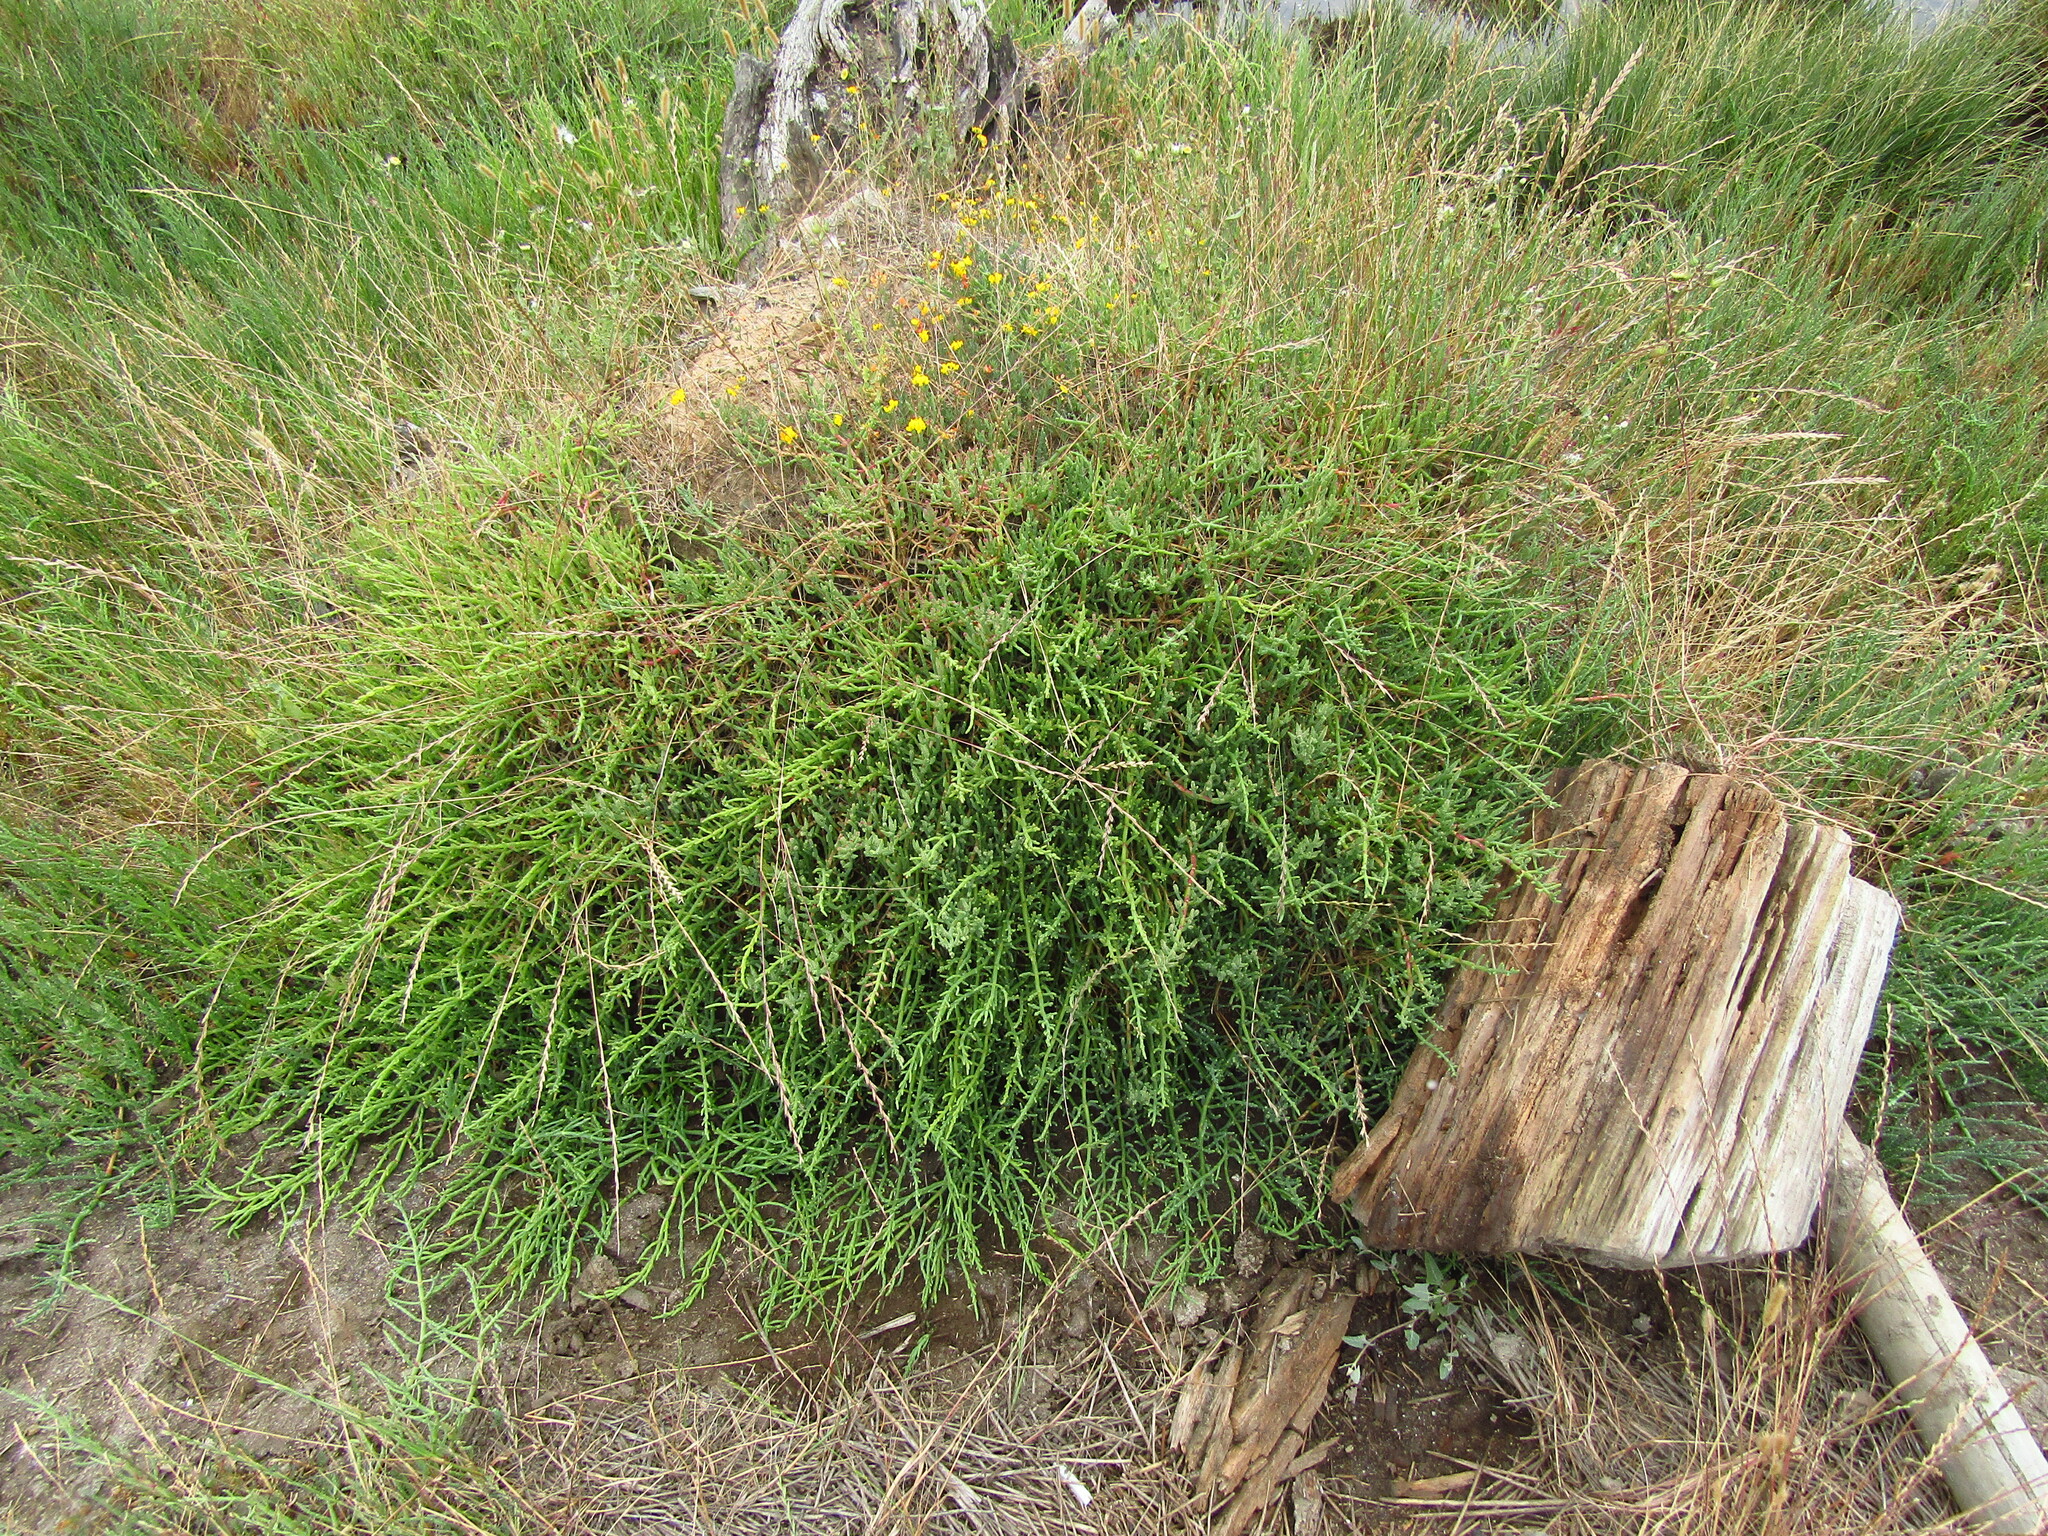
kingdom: Plantae
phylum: Tracheophyta
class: Magnoliopsida
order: Caryophyllales
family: Amaranthaceae
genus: Salicornia
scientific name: Salicornia neei
